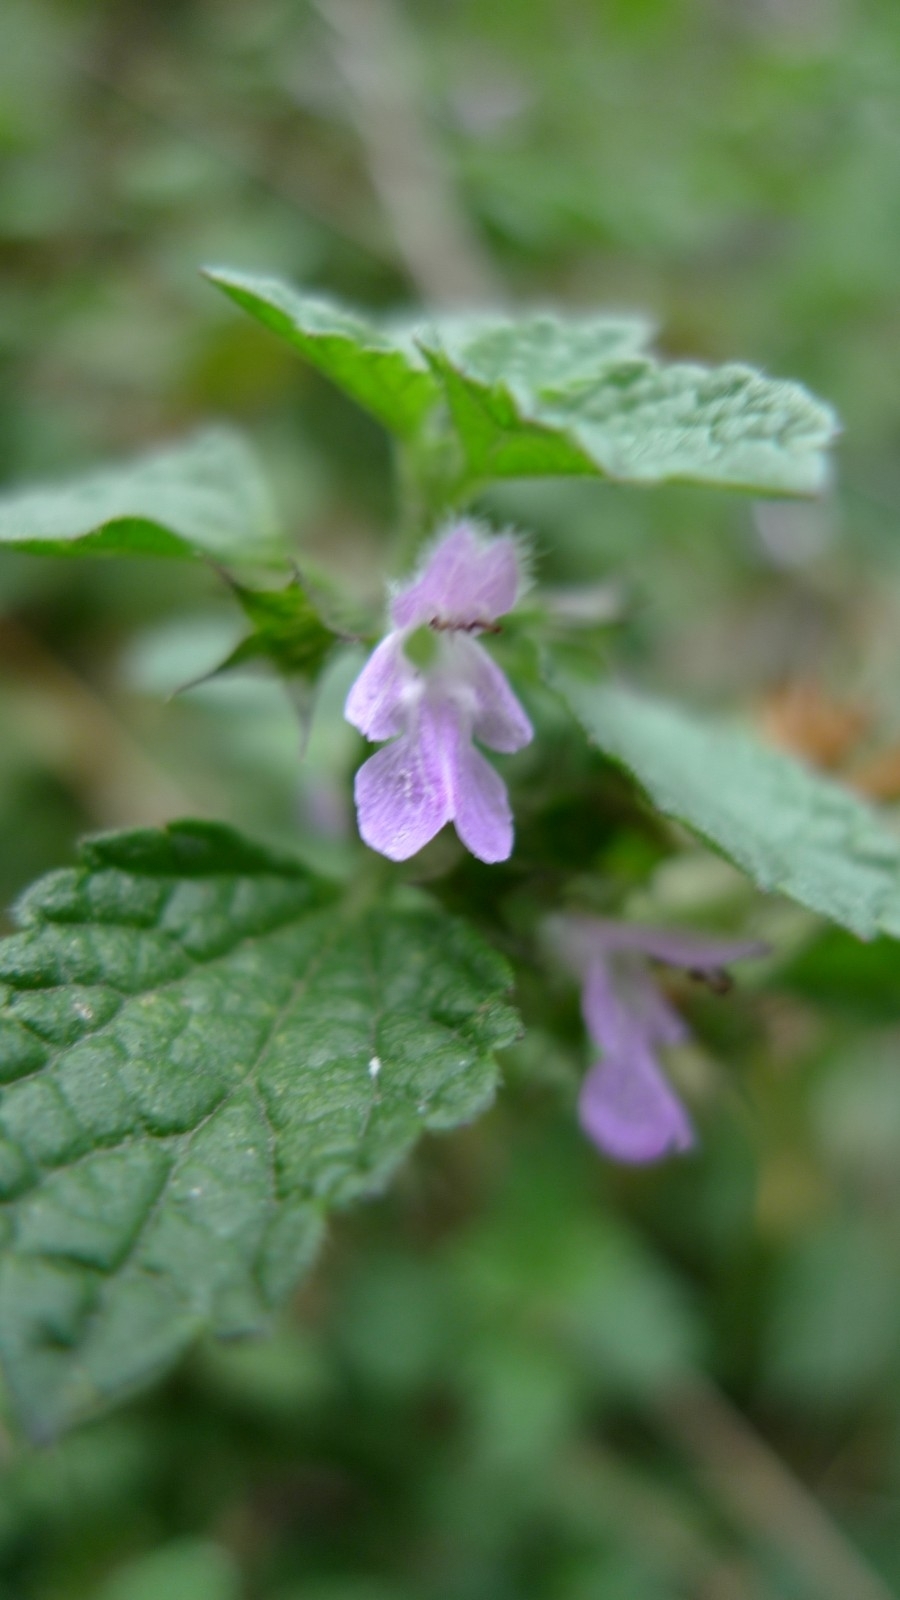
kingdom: Plantae
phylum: Tracheophyta
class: Magnoliopsida
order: Lamiales
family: Lamiaceae
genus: Ballota
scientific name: Ballota nigra
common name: Black horehound
